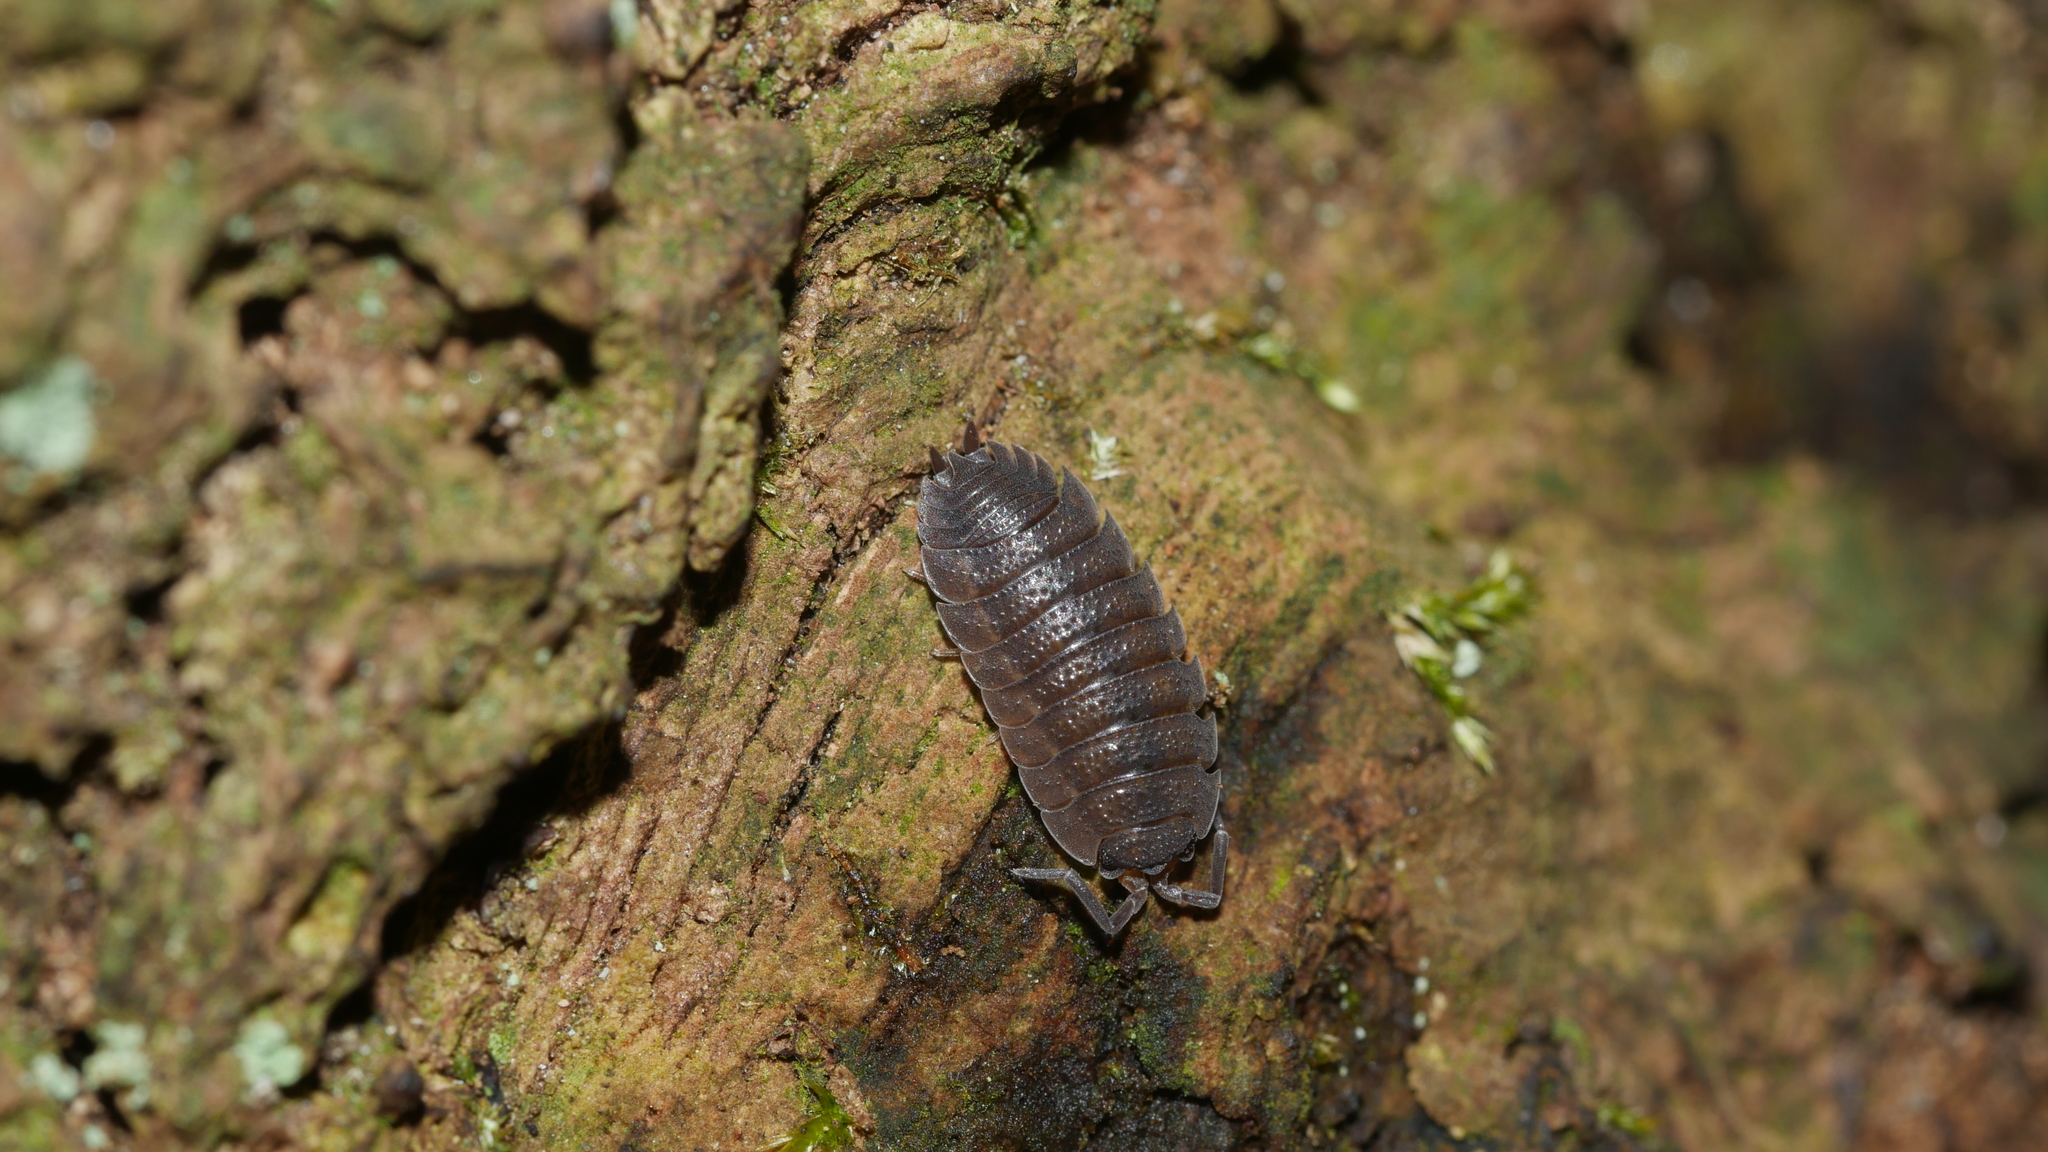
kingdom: Animalia
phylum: Arthropoda
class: Malacostraca
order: Isopoda
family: Porcellionidae
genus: Porcellio
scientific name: Porcellio scaber
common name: Common rough woodlouse
